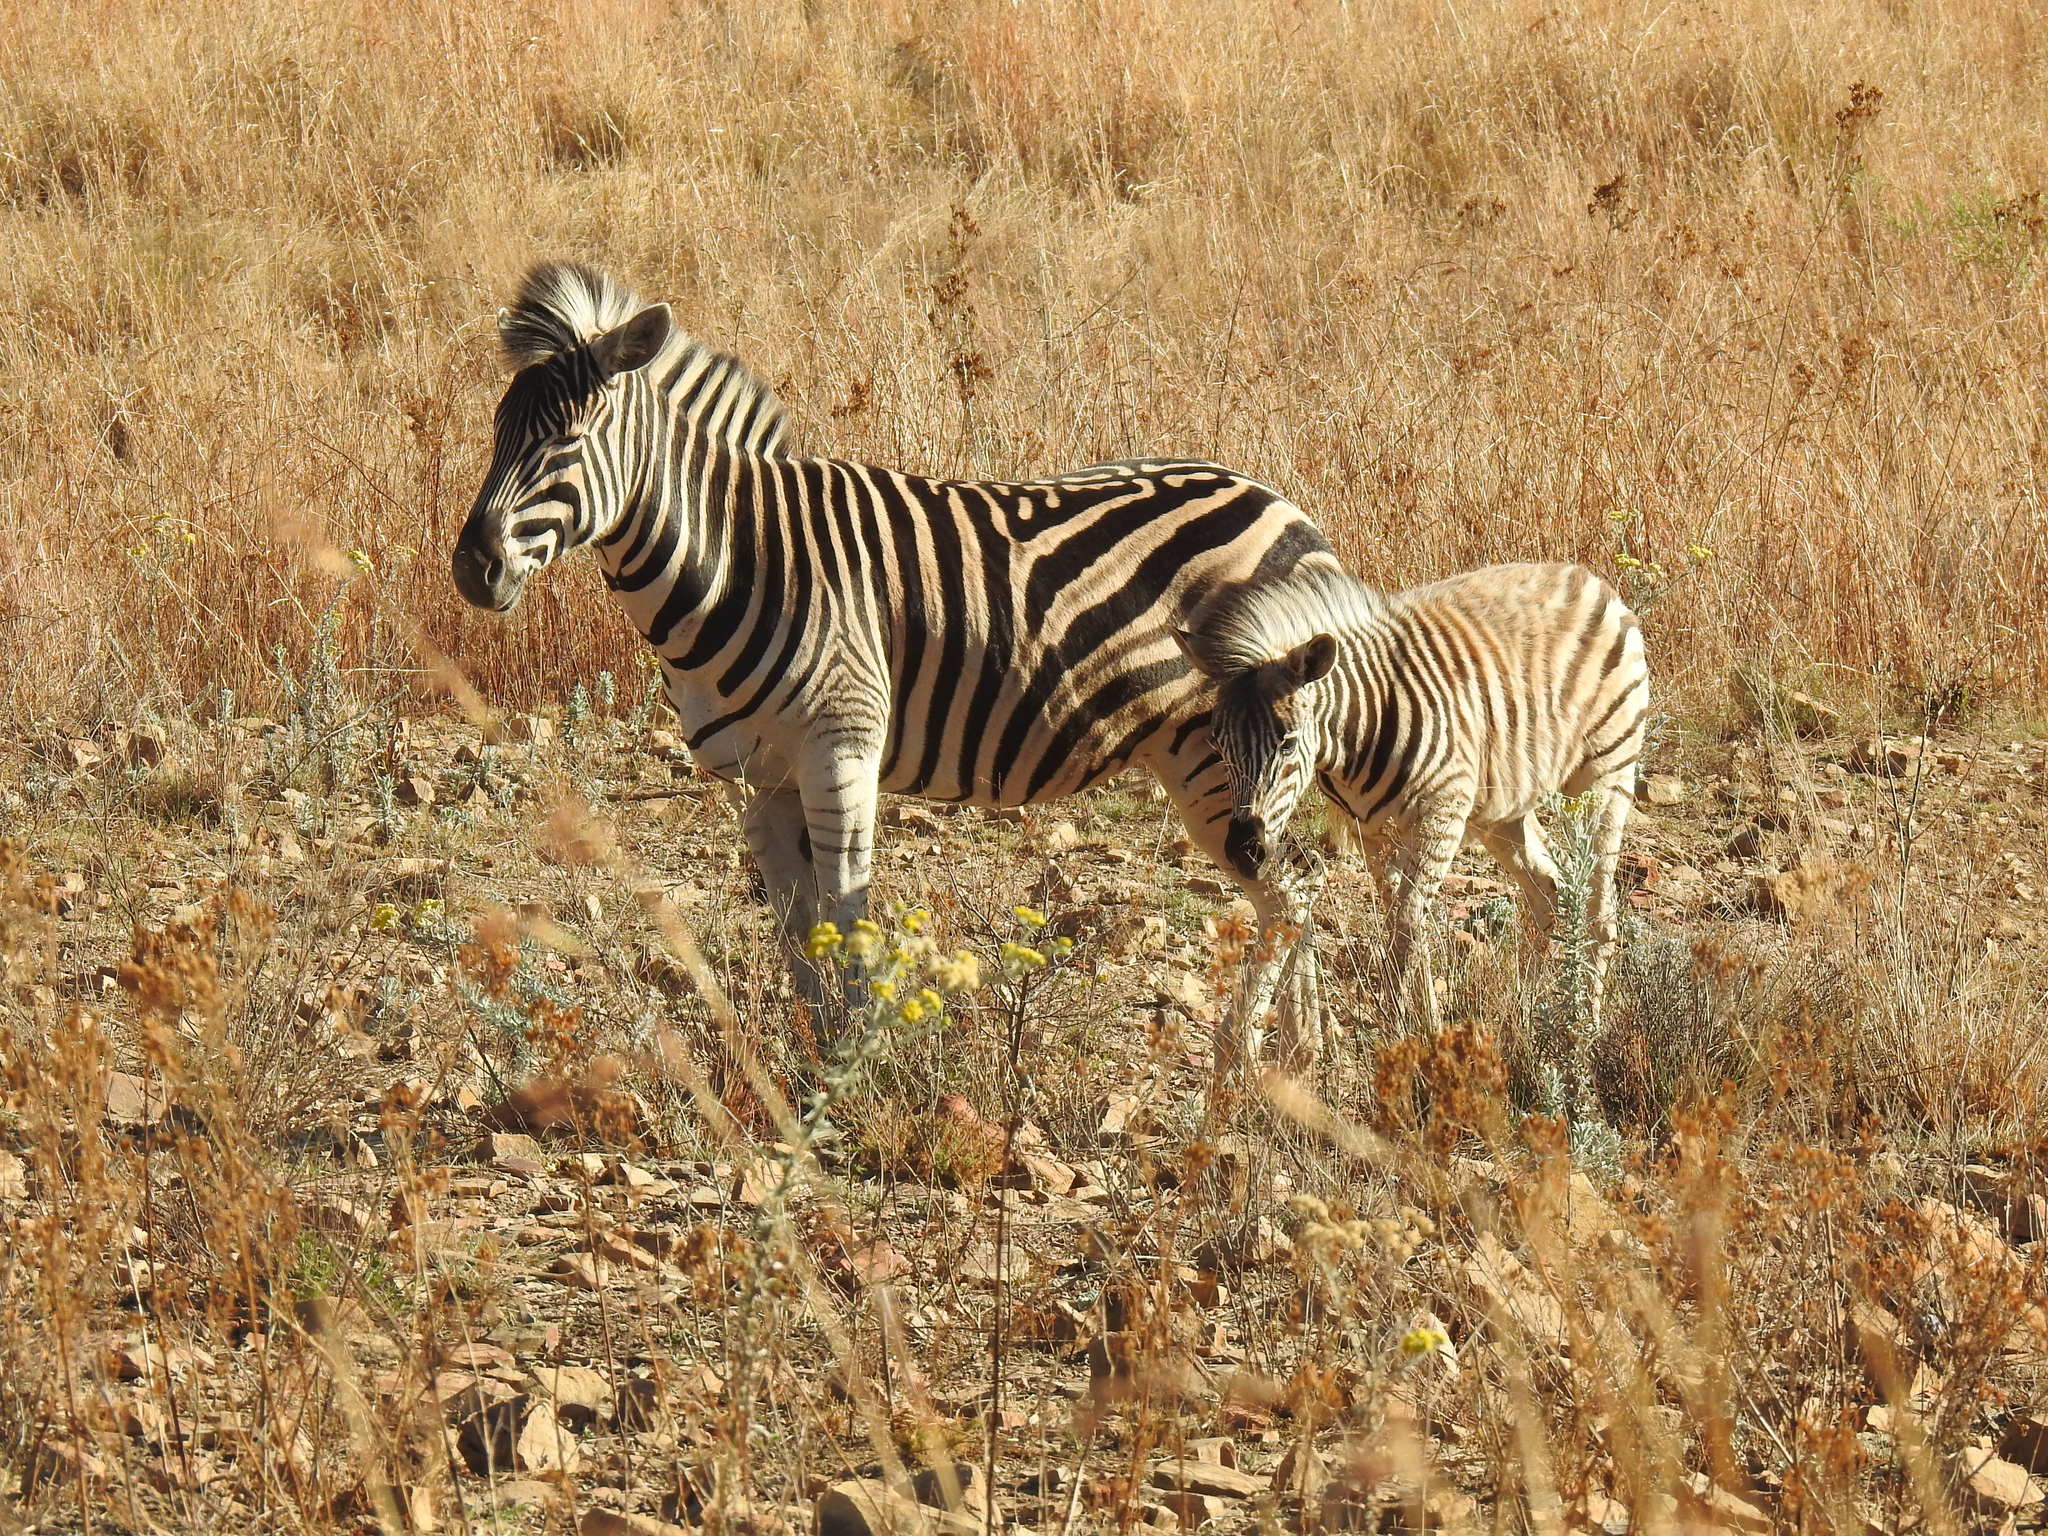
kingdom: Animalia
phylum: Chordata
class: Mammalia
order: Perissodactyla
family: Equidae
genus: Equus
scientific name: Equus quagga
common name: Plains zebra
